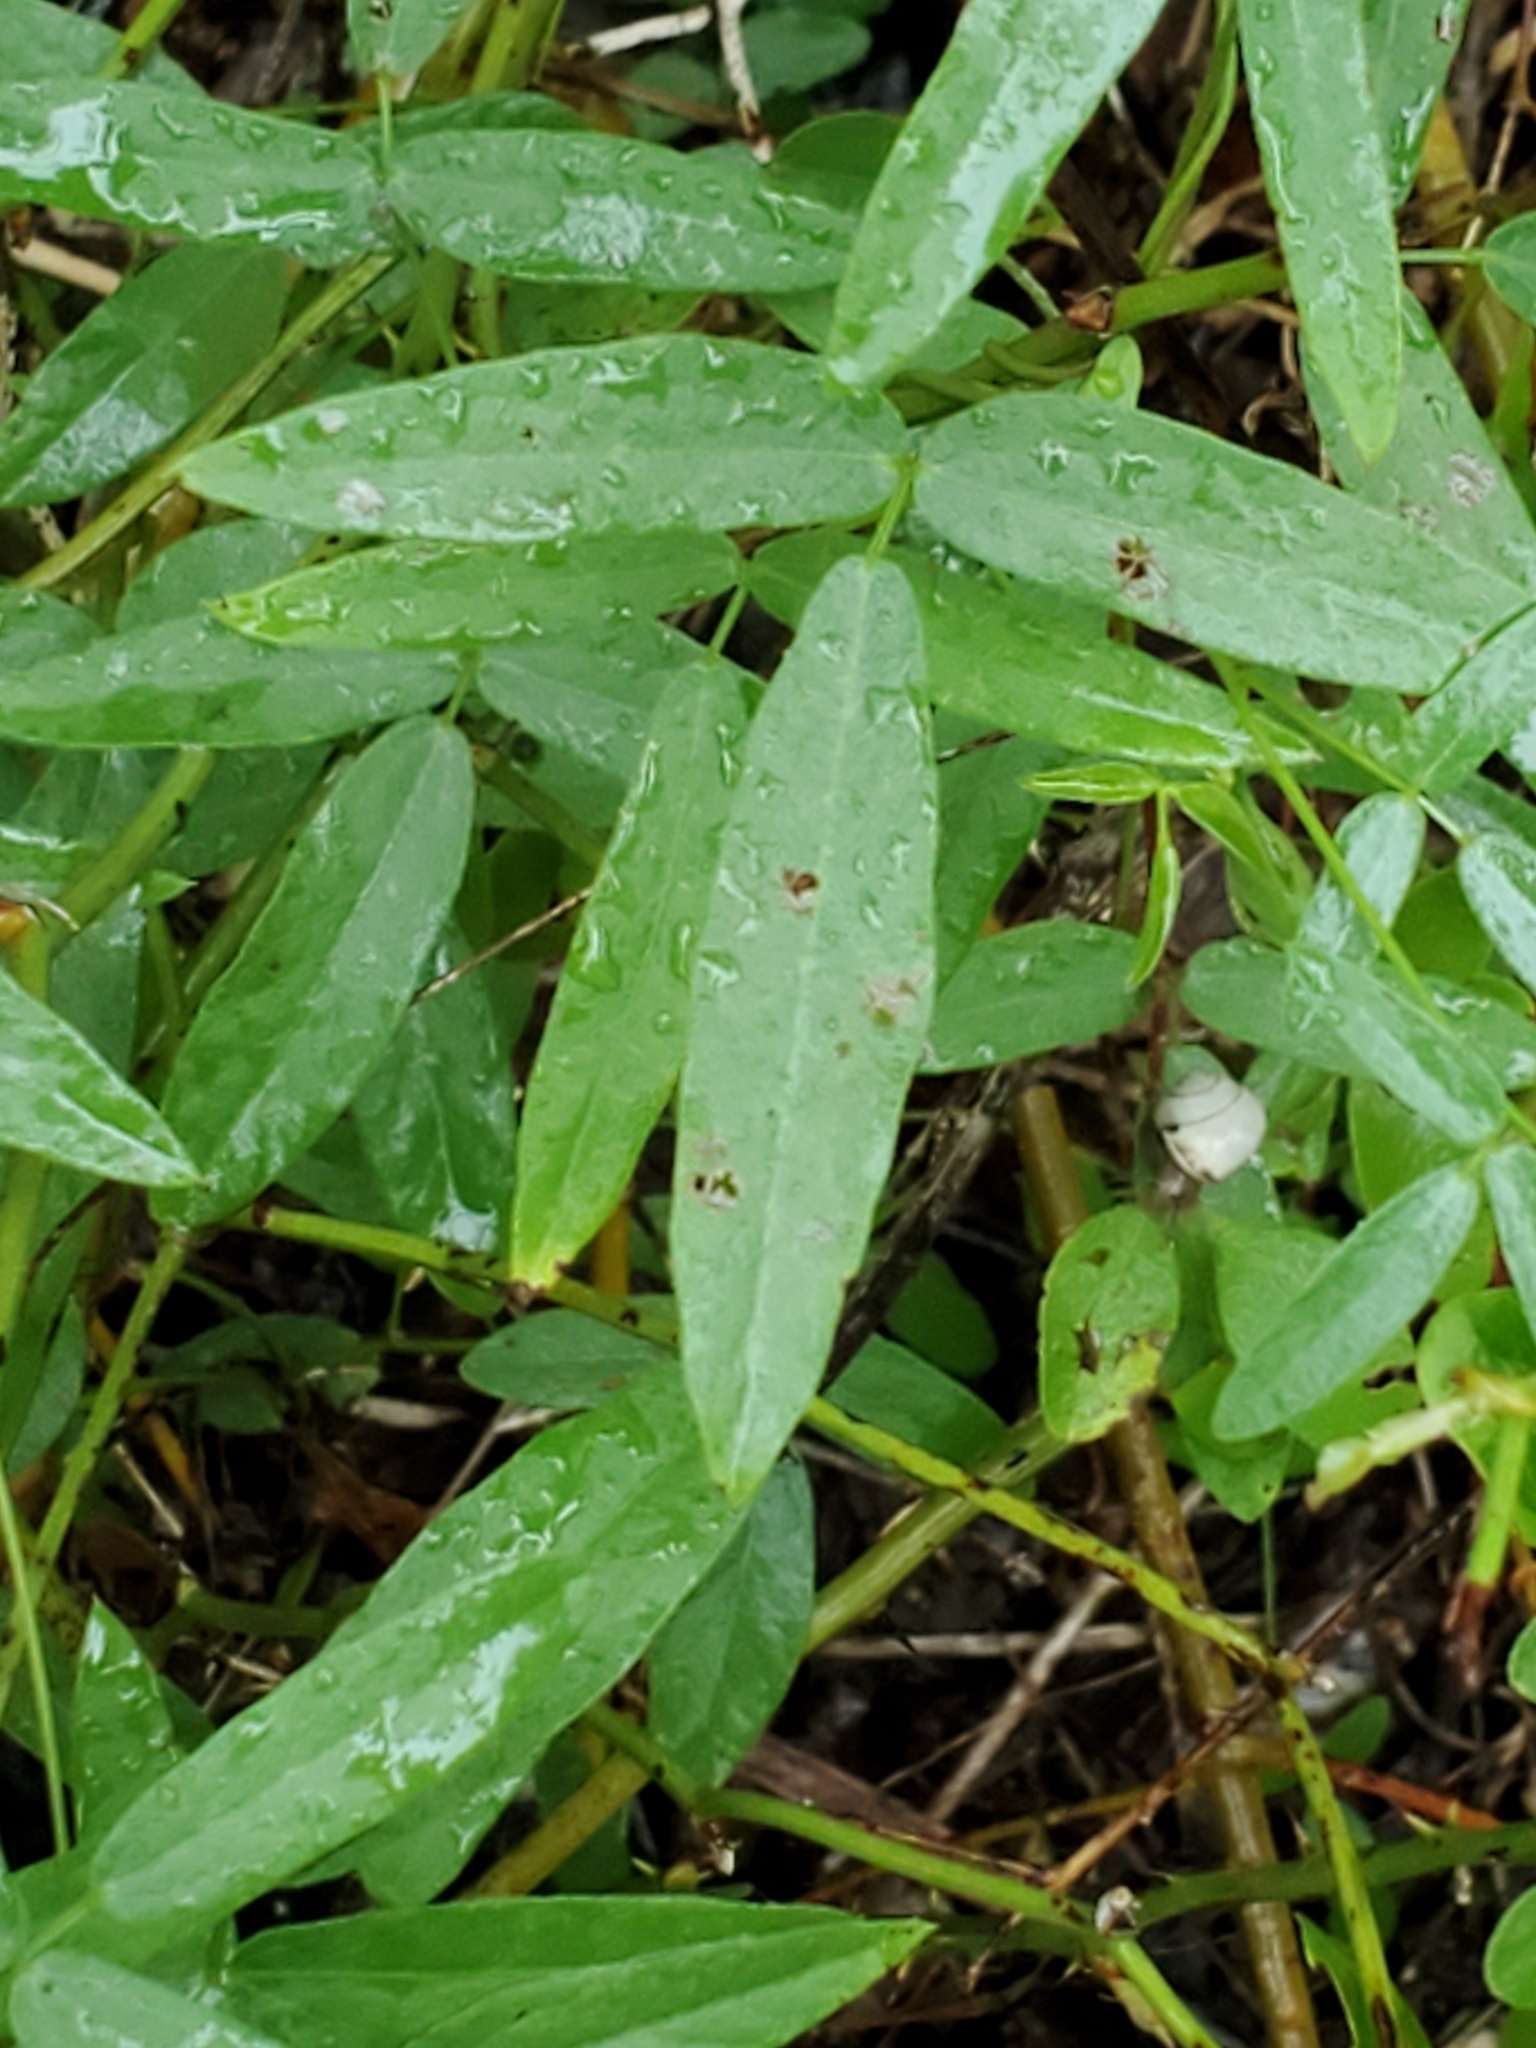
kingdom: Plantae
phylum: Tracheophyta
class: Magnoliopsida
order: Fabales
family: Fabaceae
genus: Rhynchosia
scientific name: Rhynchosia senna
